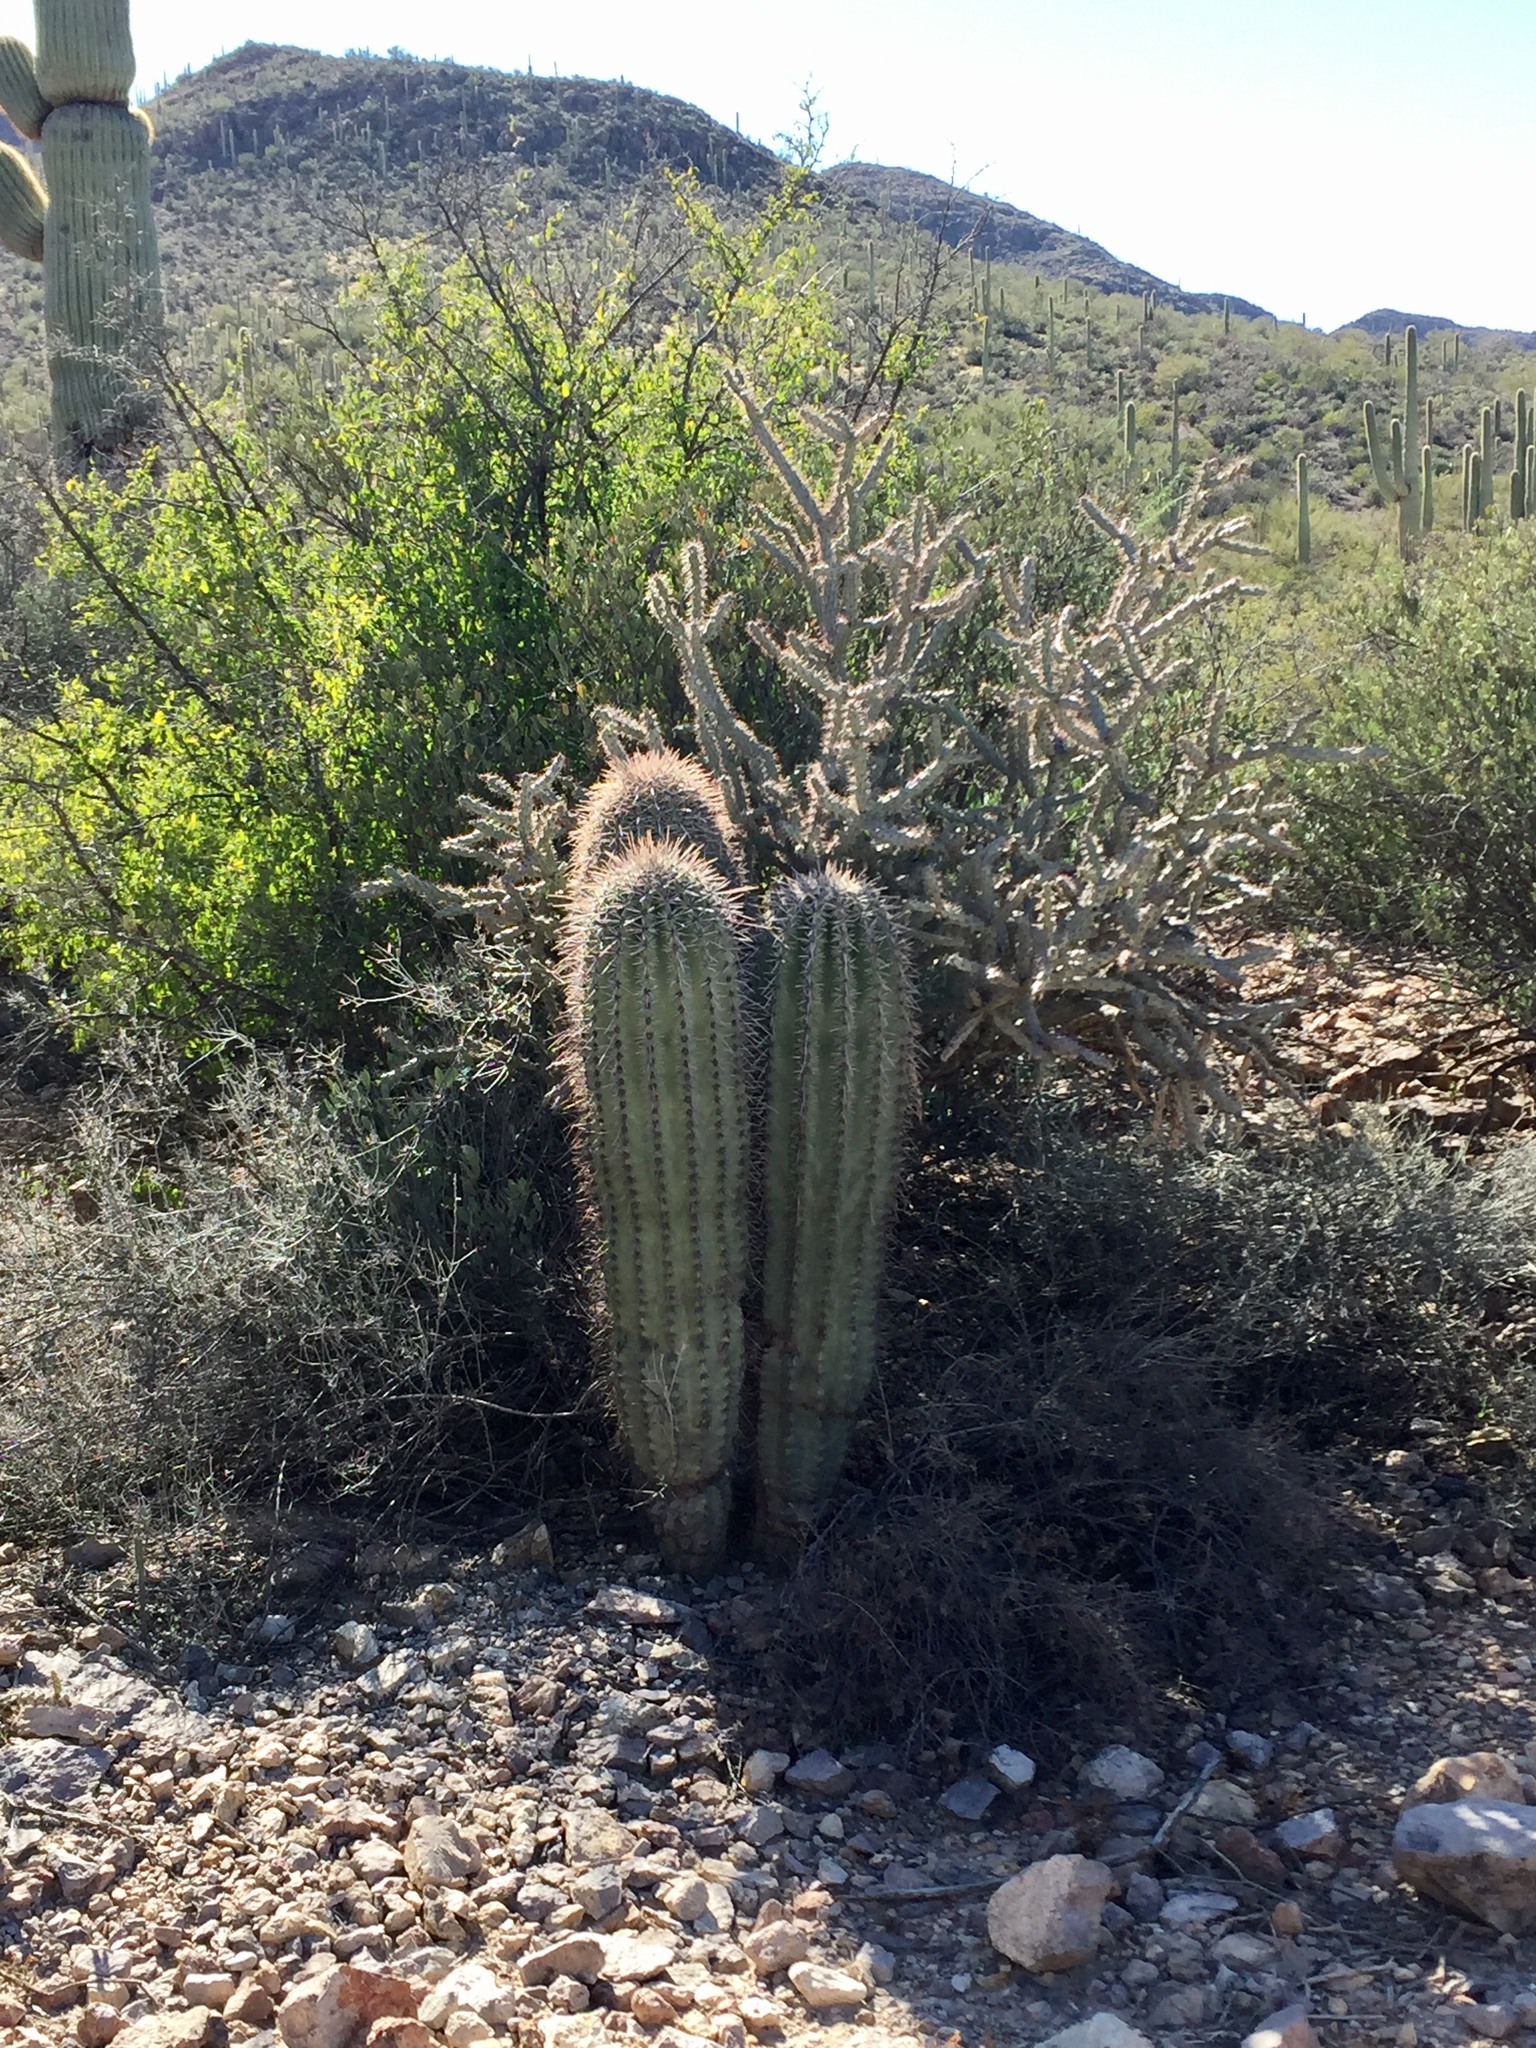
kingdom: Plantae
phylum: Tracheophyta
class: Magnoliopsida
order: Caryophyllales
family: Cactaceae
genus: Carnegiea
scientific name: Carnegiea gigantea
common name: Saguaro
